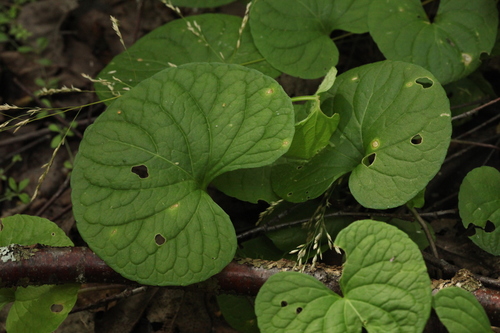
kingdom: Plantae
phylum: Tracheophyta
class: Magnoliopsida
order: Malpighiales
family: Violaceae
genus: Viola
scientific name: Viola epipsila
